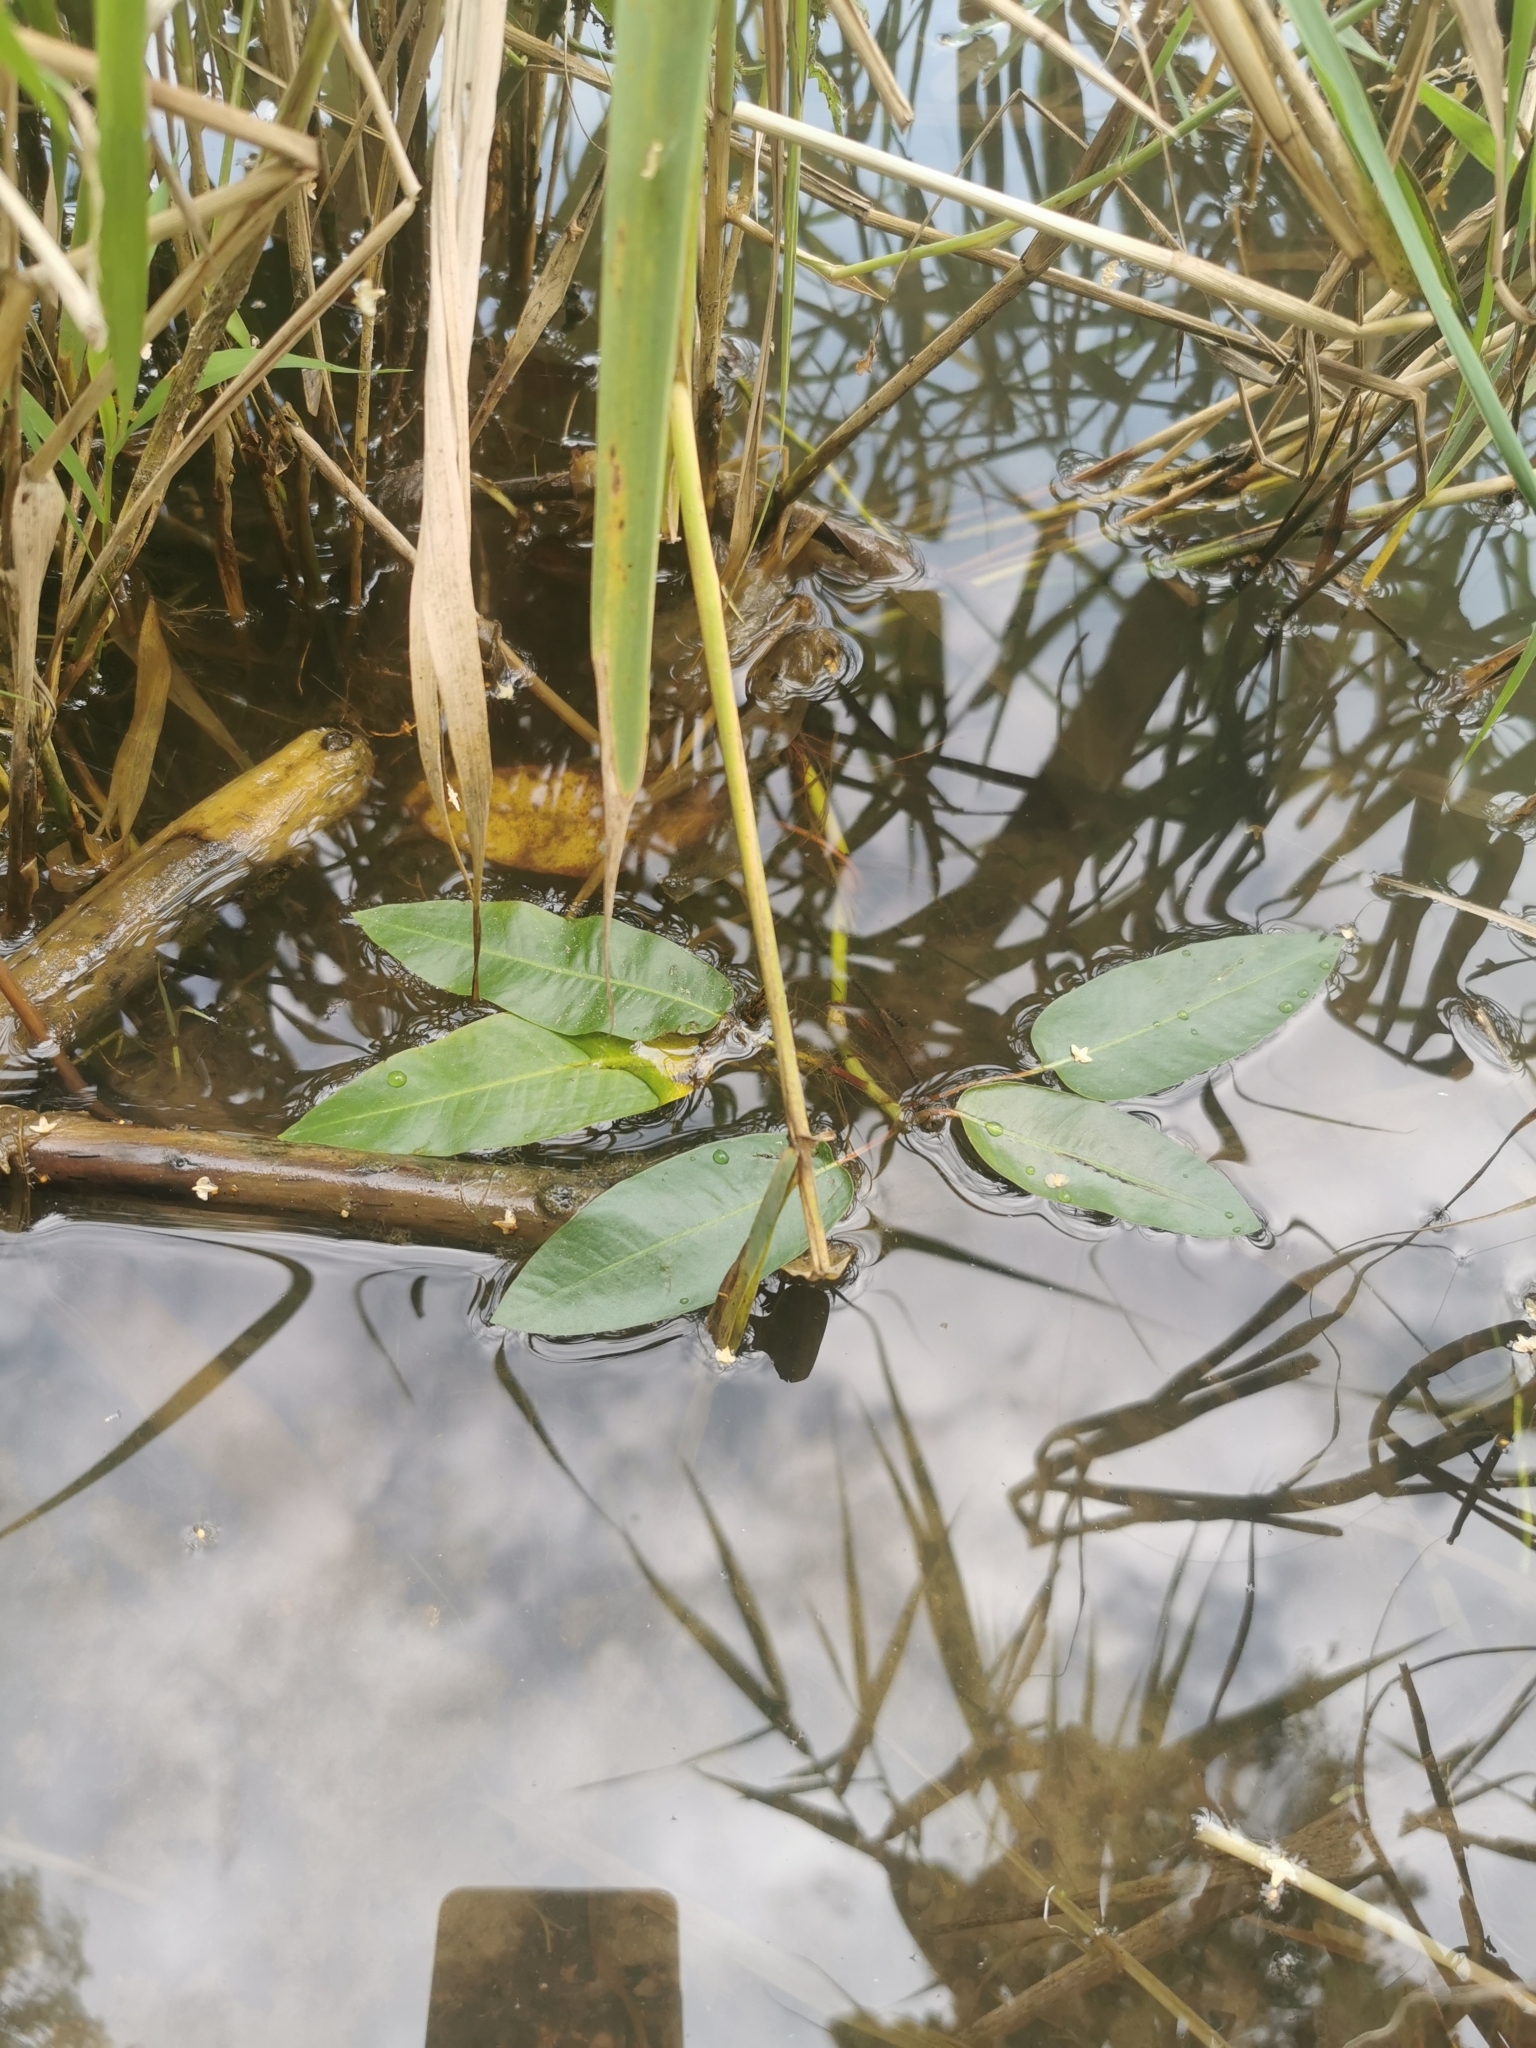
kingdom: Plantae
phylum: Tracheophyta
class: Magnoliopsida
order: Caryophyllales
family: Polygonaceae
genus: Persicaria
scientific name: Persicaria amphibia
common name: Amphibious bistort
